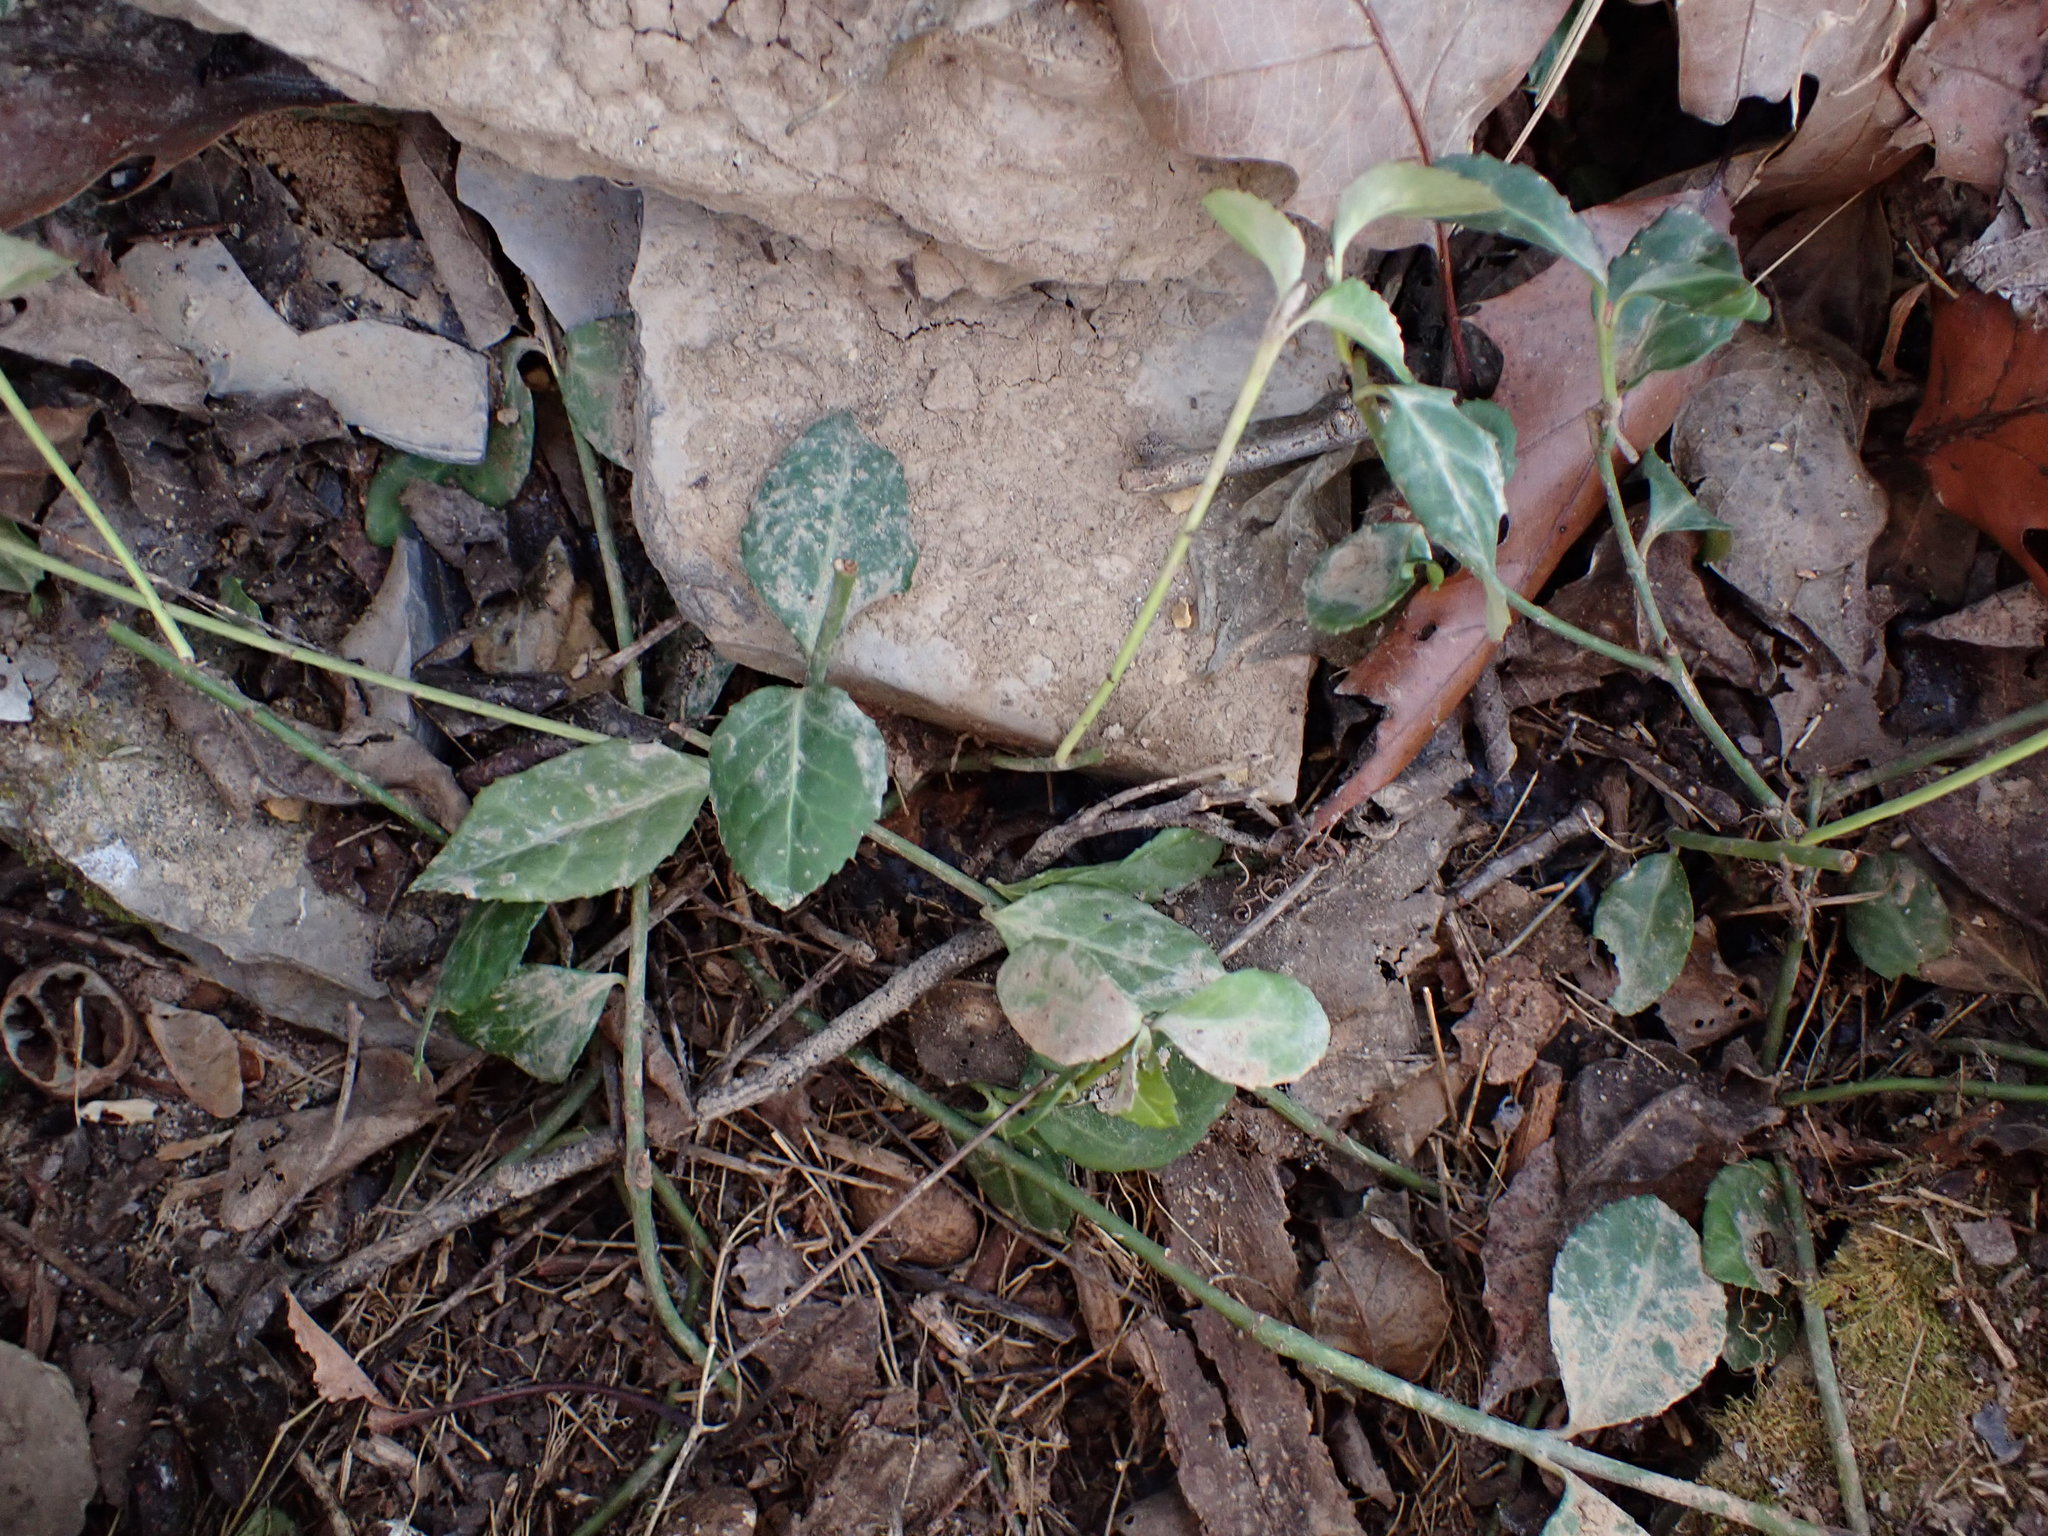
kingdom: Plantae
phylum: Tracheophyta
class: Magnoliopsida
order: Celastrales
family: Celastraceae
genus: Euonymus
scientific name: Euonymus fortunei
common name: Climbing euonymus
